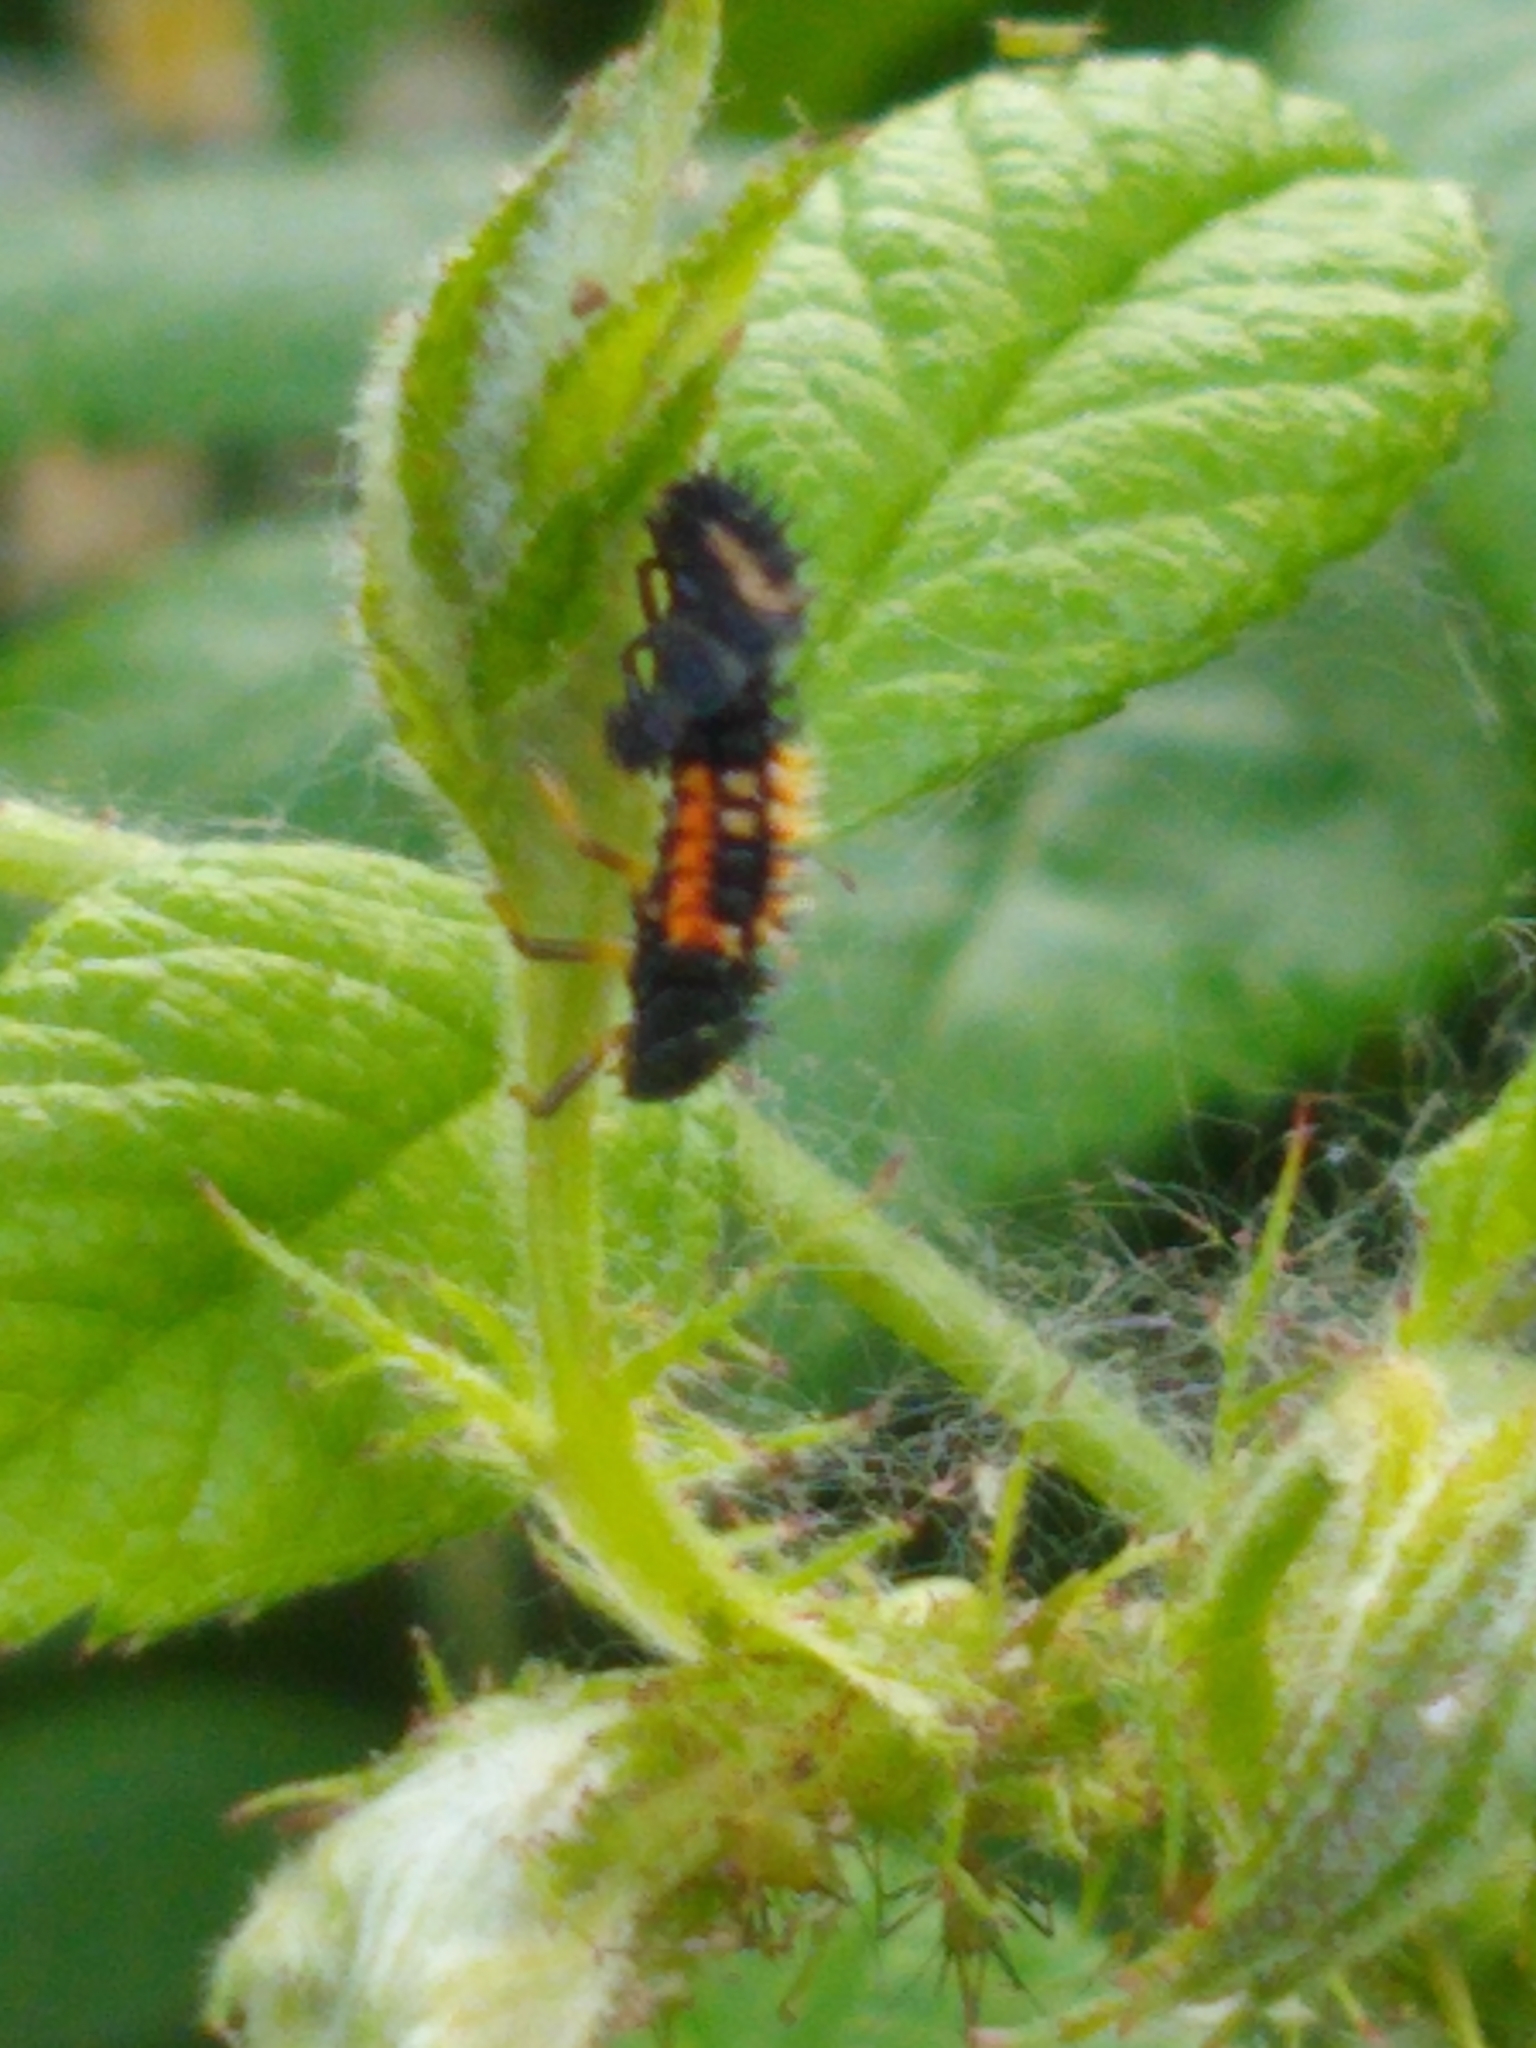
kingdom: Animalia
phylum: Arthropoda
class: Insecta
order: Coleoptera
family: Coccinellidae
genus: Harmonia
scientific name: Harmonia axyridis
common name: Harlequin ladybird
